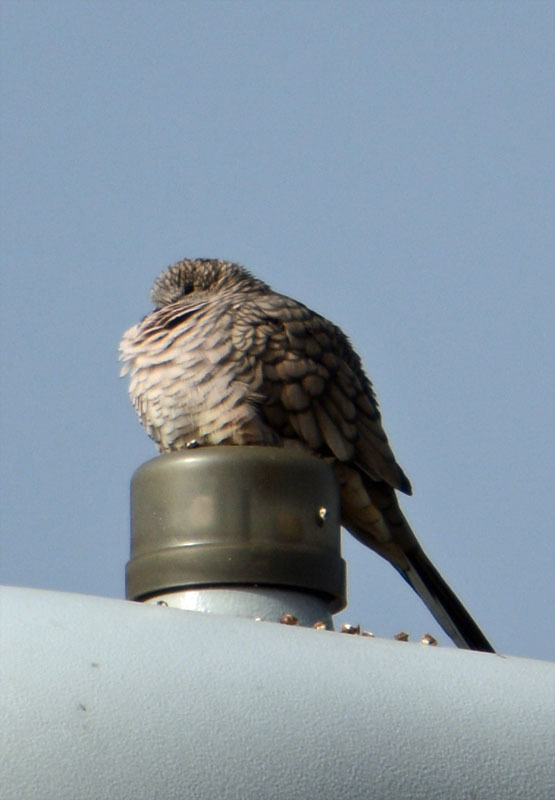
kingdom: Animalia
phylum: Chordata
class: Aves
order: Columbiformes
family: Columbidae
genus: Columbina
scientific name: Columbina inca
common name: Inca dove
